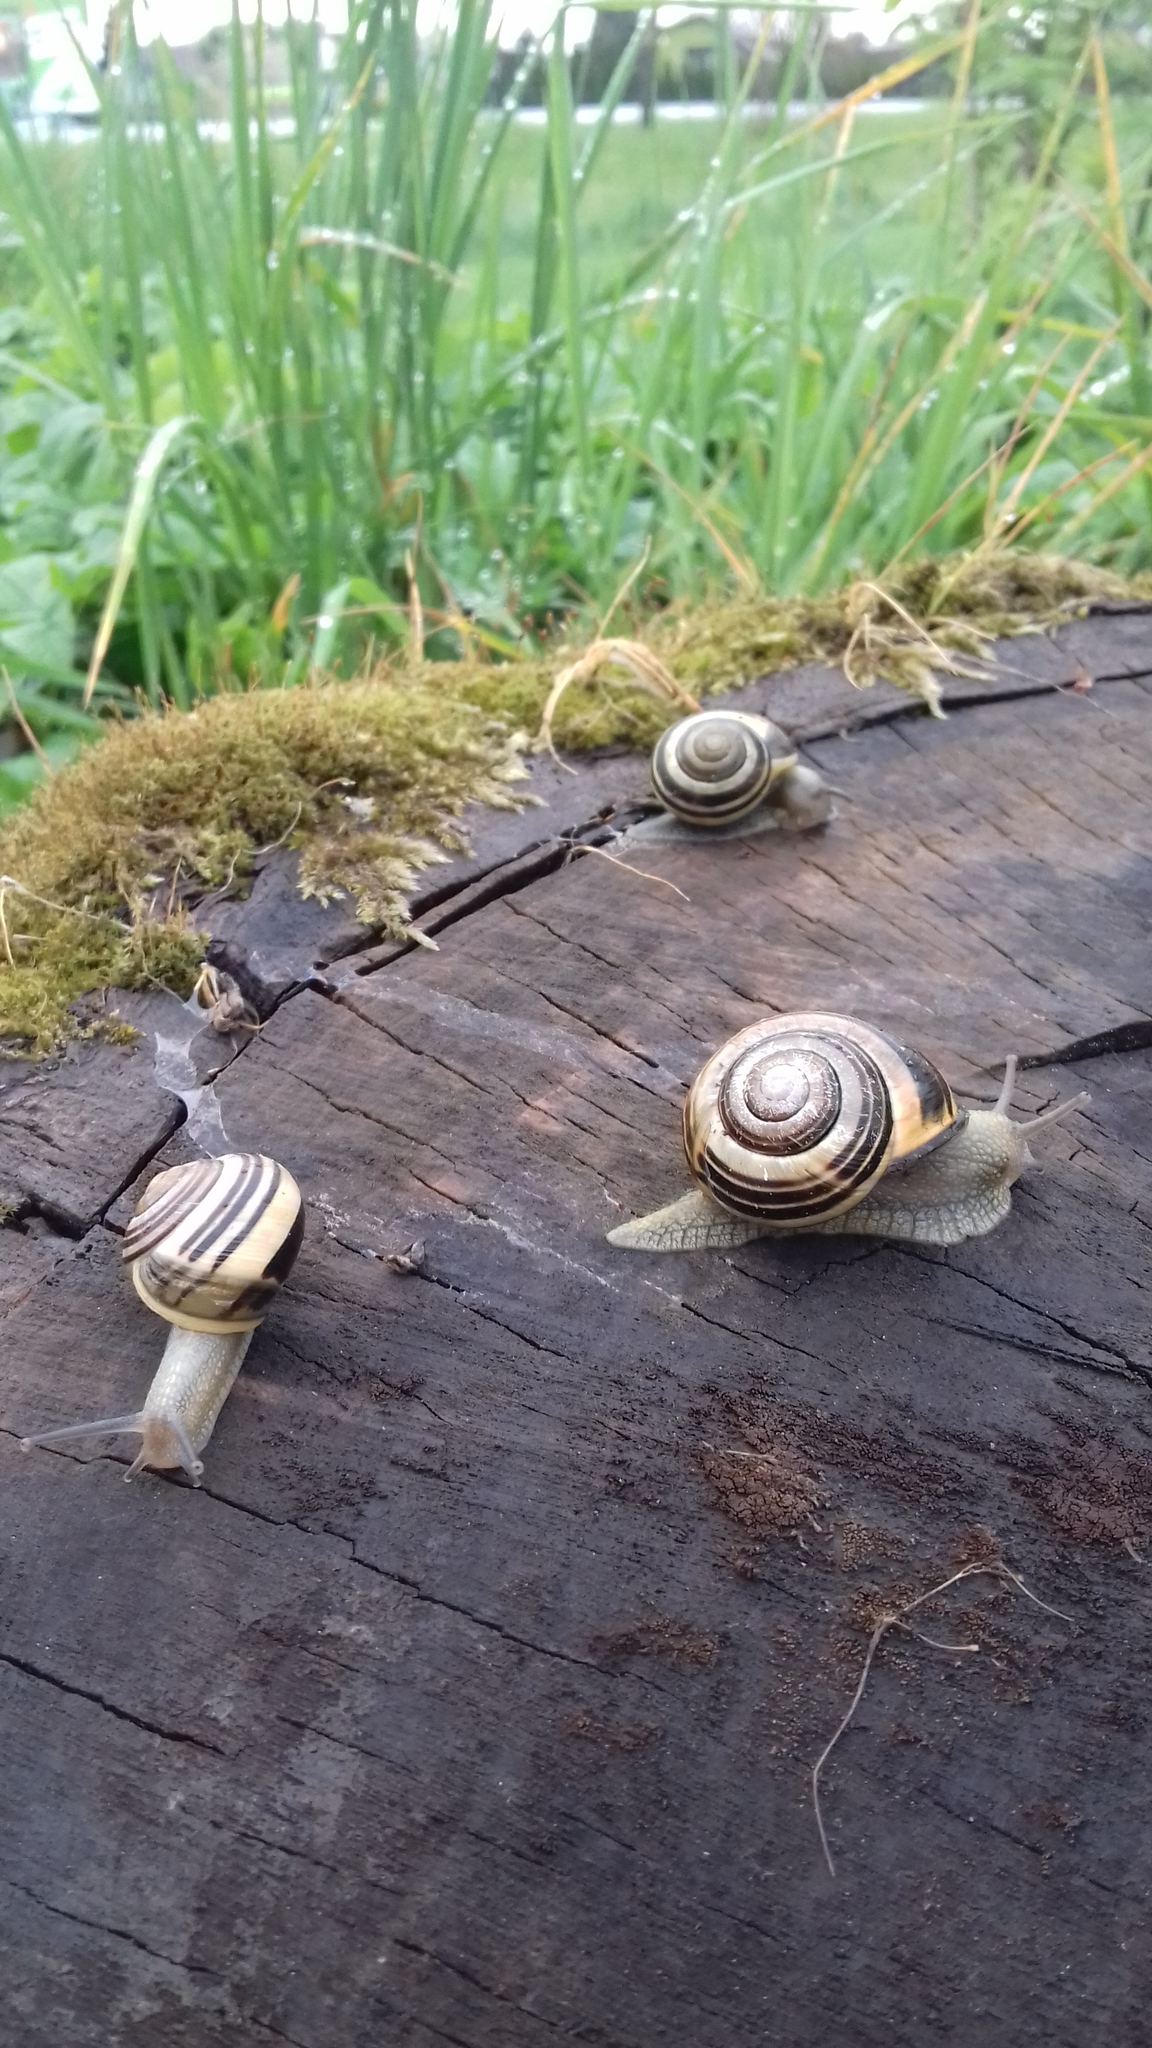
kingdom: Animalia
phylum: Mollusca
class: Gastropoda
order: Stylommatophora
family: Helicidae
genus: Cepaea
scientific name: Cepaea nemoralis
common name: Grovesnail
